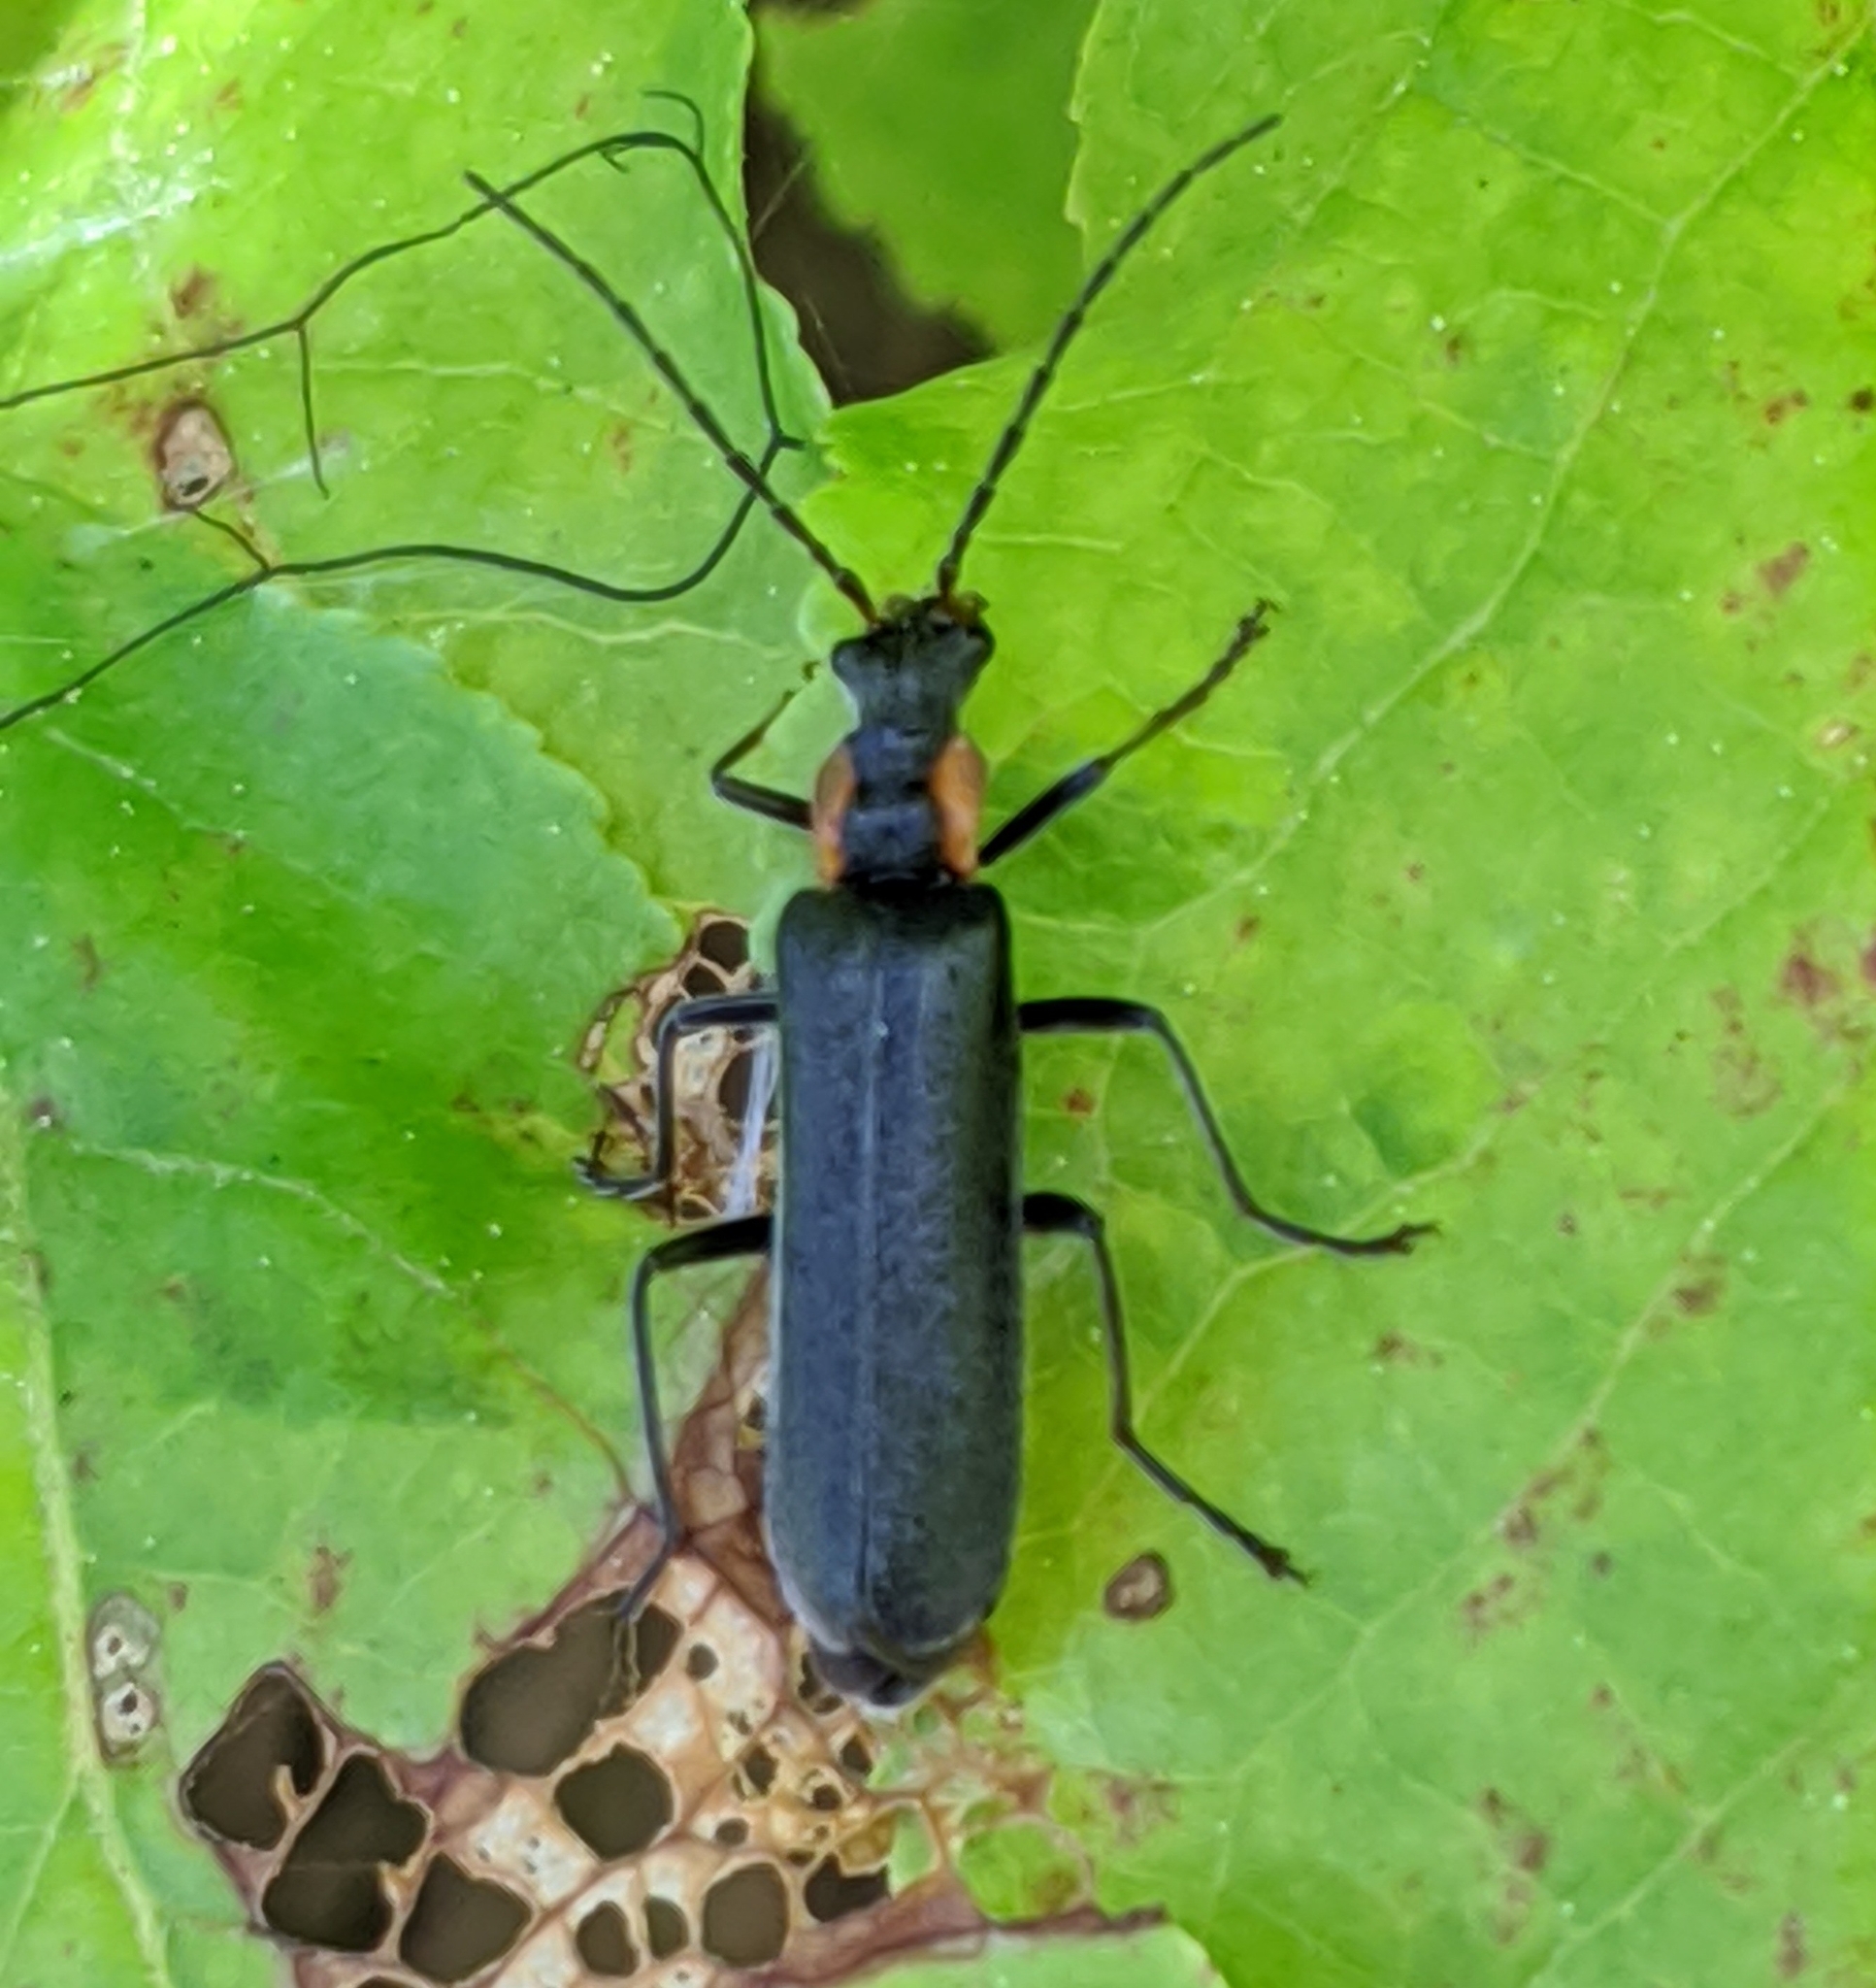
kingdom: Animalia
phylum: Arthropoda
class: Insecta
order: Coleoptera
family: Cantharidae
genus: Dichelotarsus
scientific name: Dichelotarsus scaber
